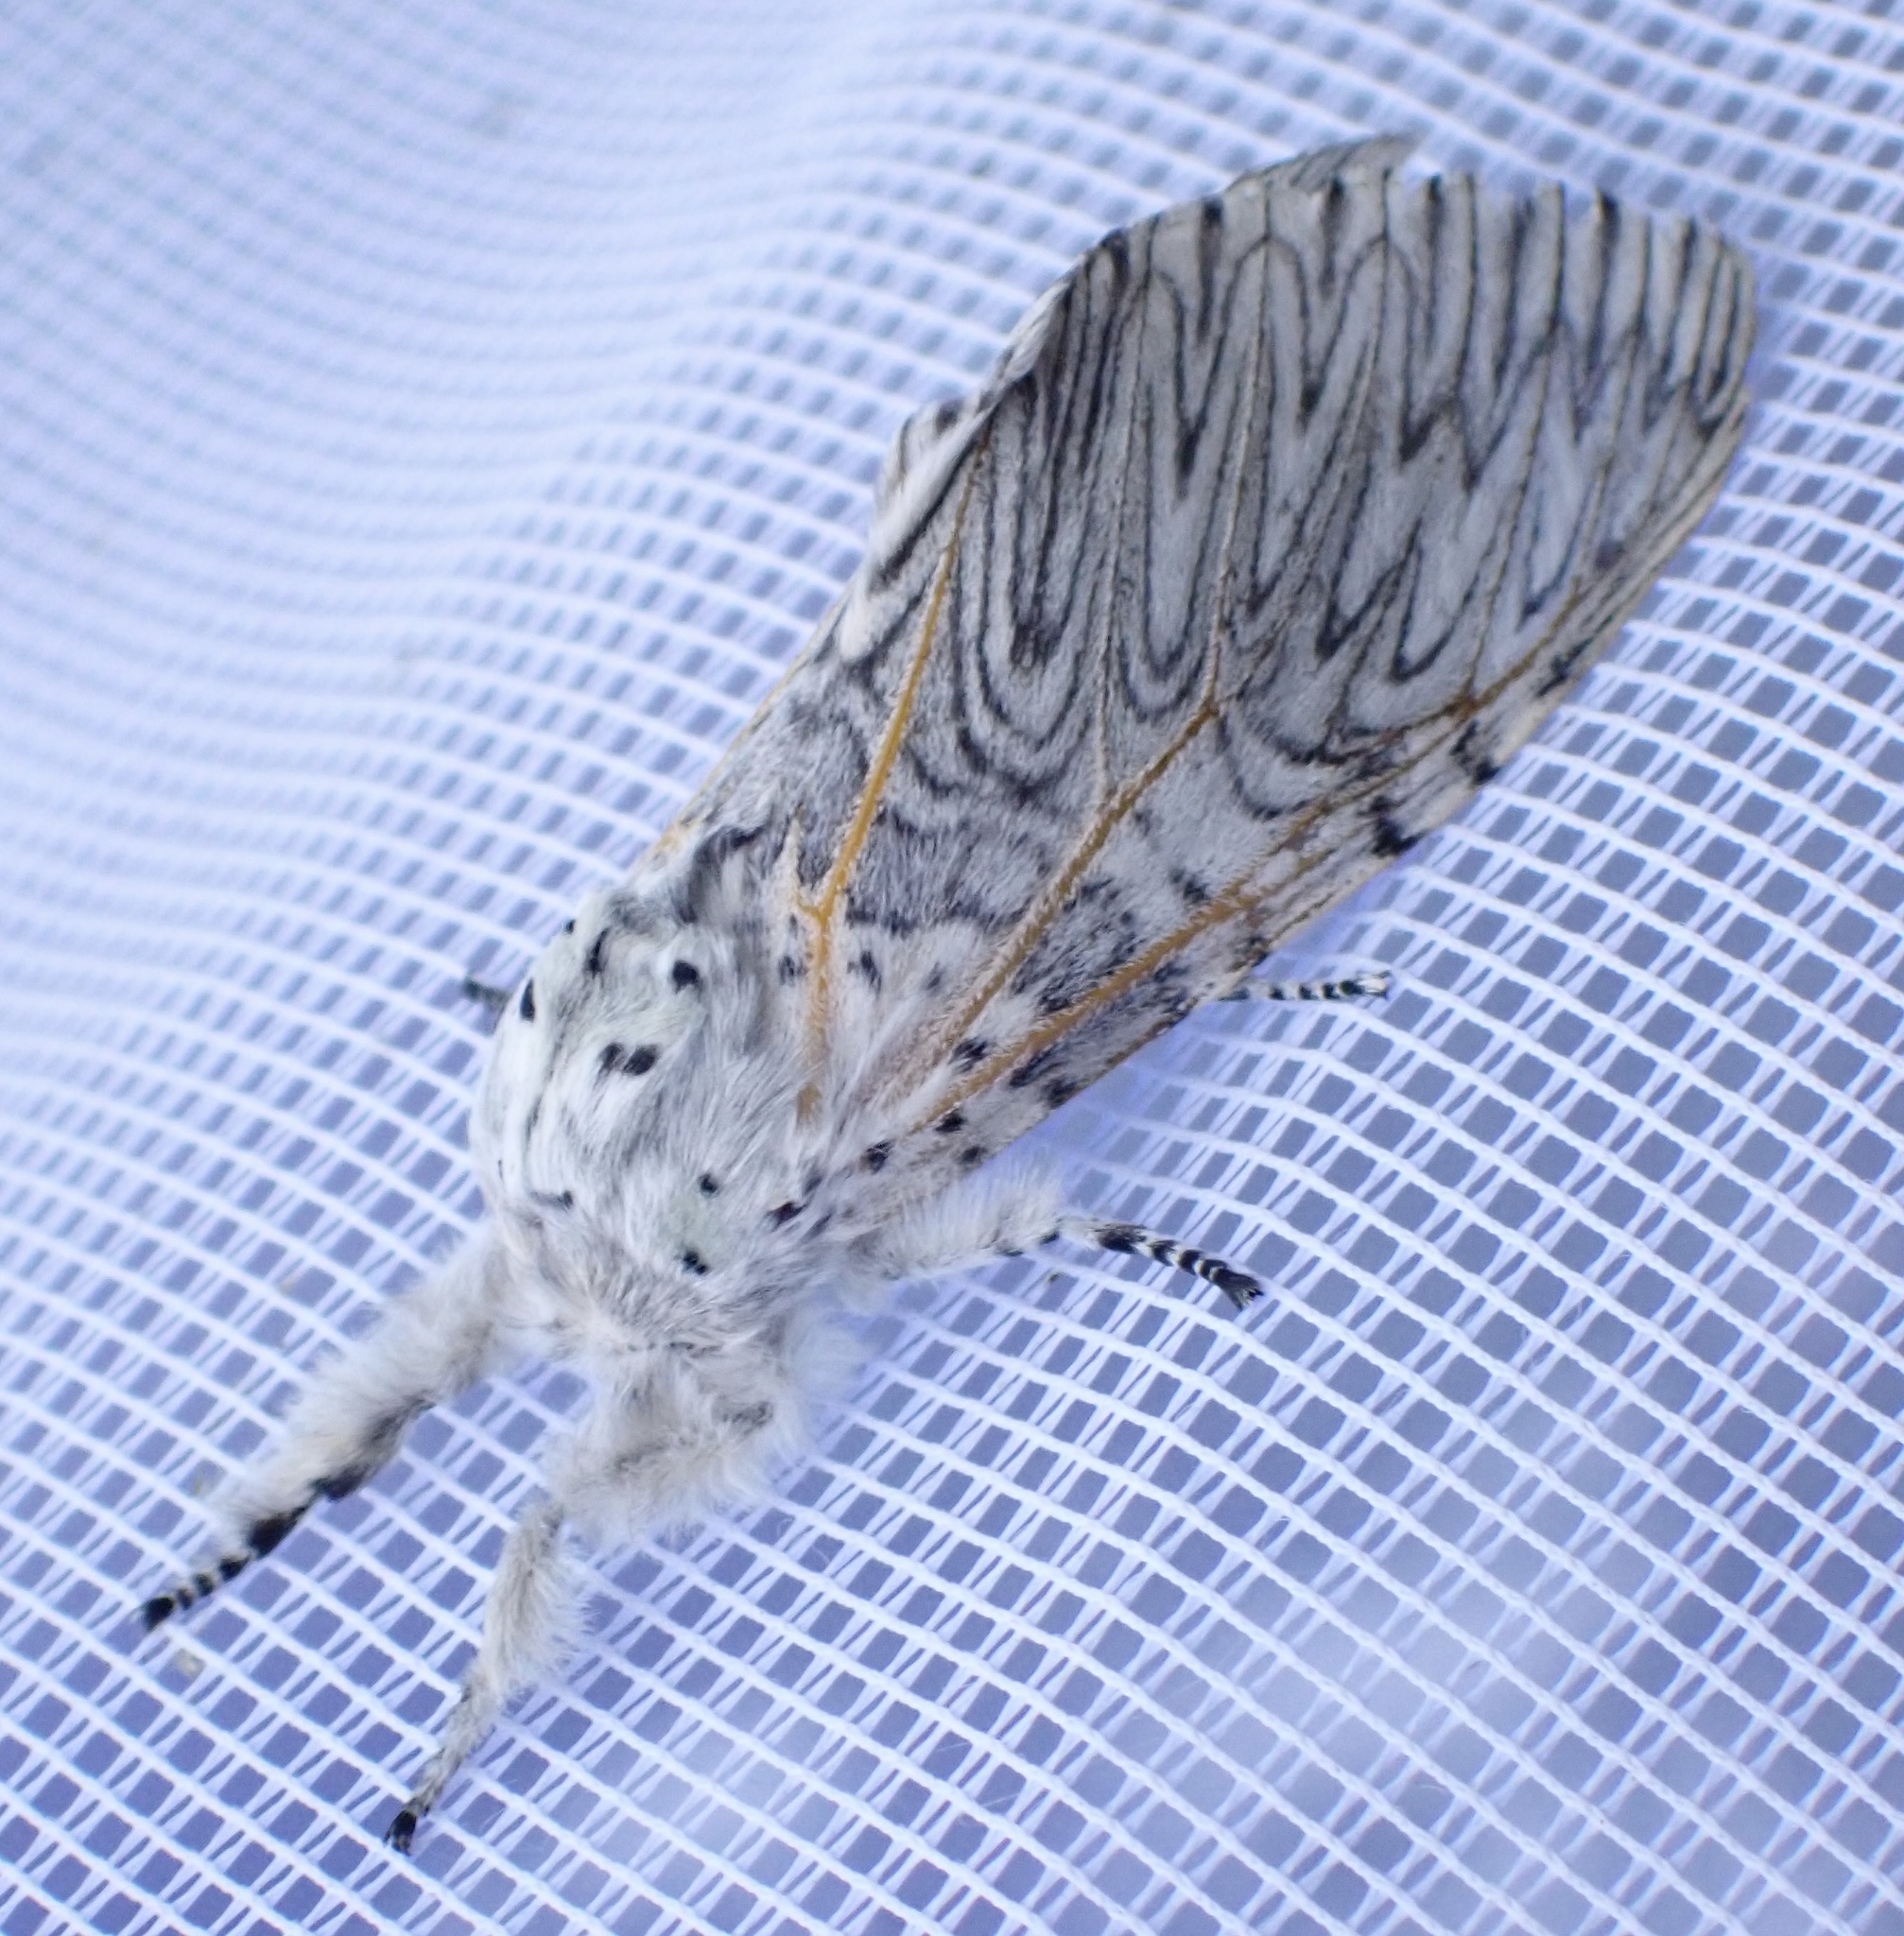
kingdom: Animalia
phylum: Arthropoda
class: Insecta
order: Lepidoptera
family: Notodontidae
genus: Cerura
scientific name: Cerura vinula
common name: Puss moth
